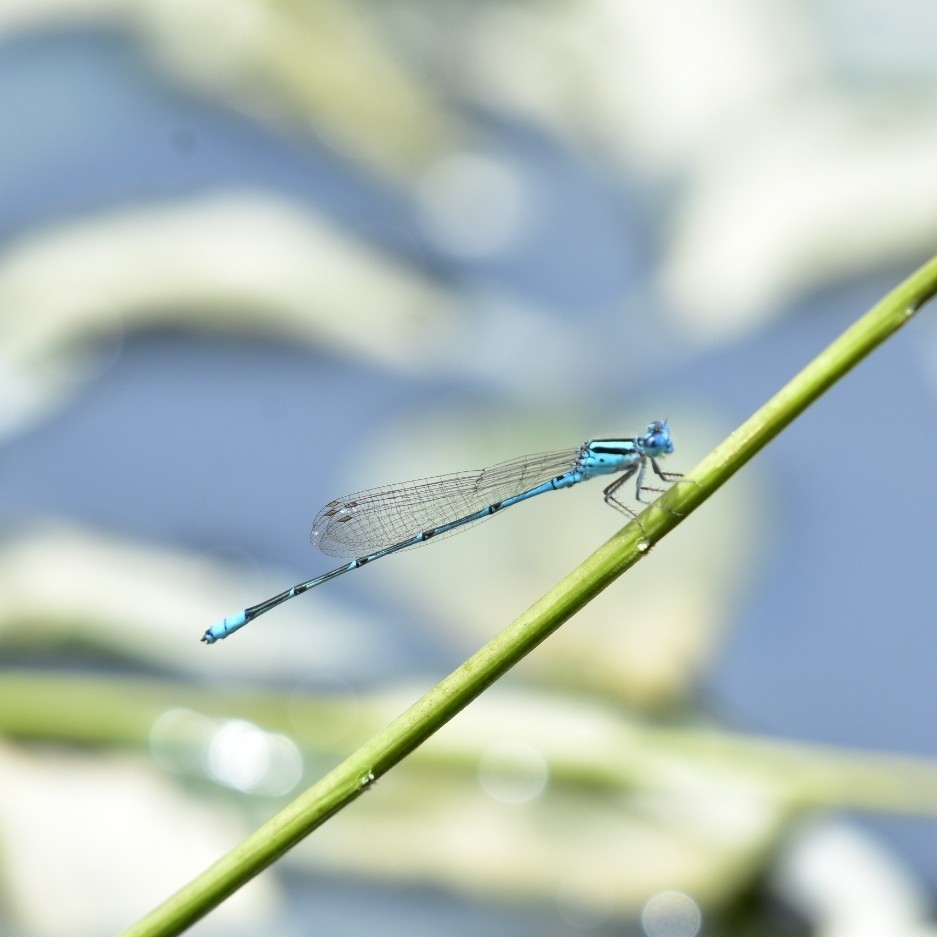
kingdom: Animalia
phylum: Arthropoda
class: Insecta
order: Odonata
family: Coenagrionidae
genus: Pseudagrion
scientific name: Pseudagrion australasiae
